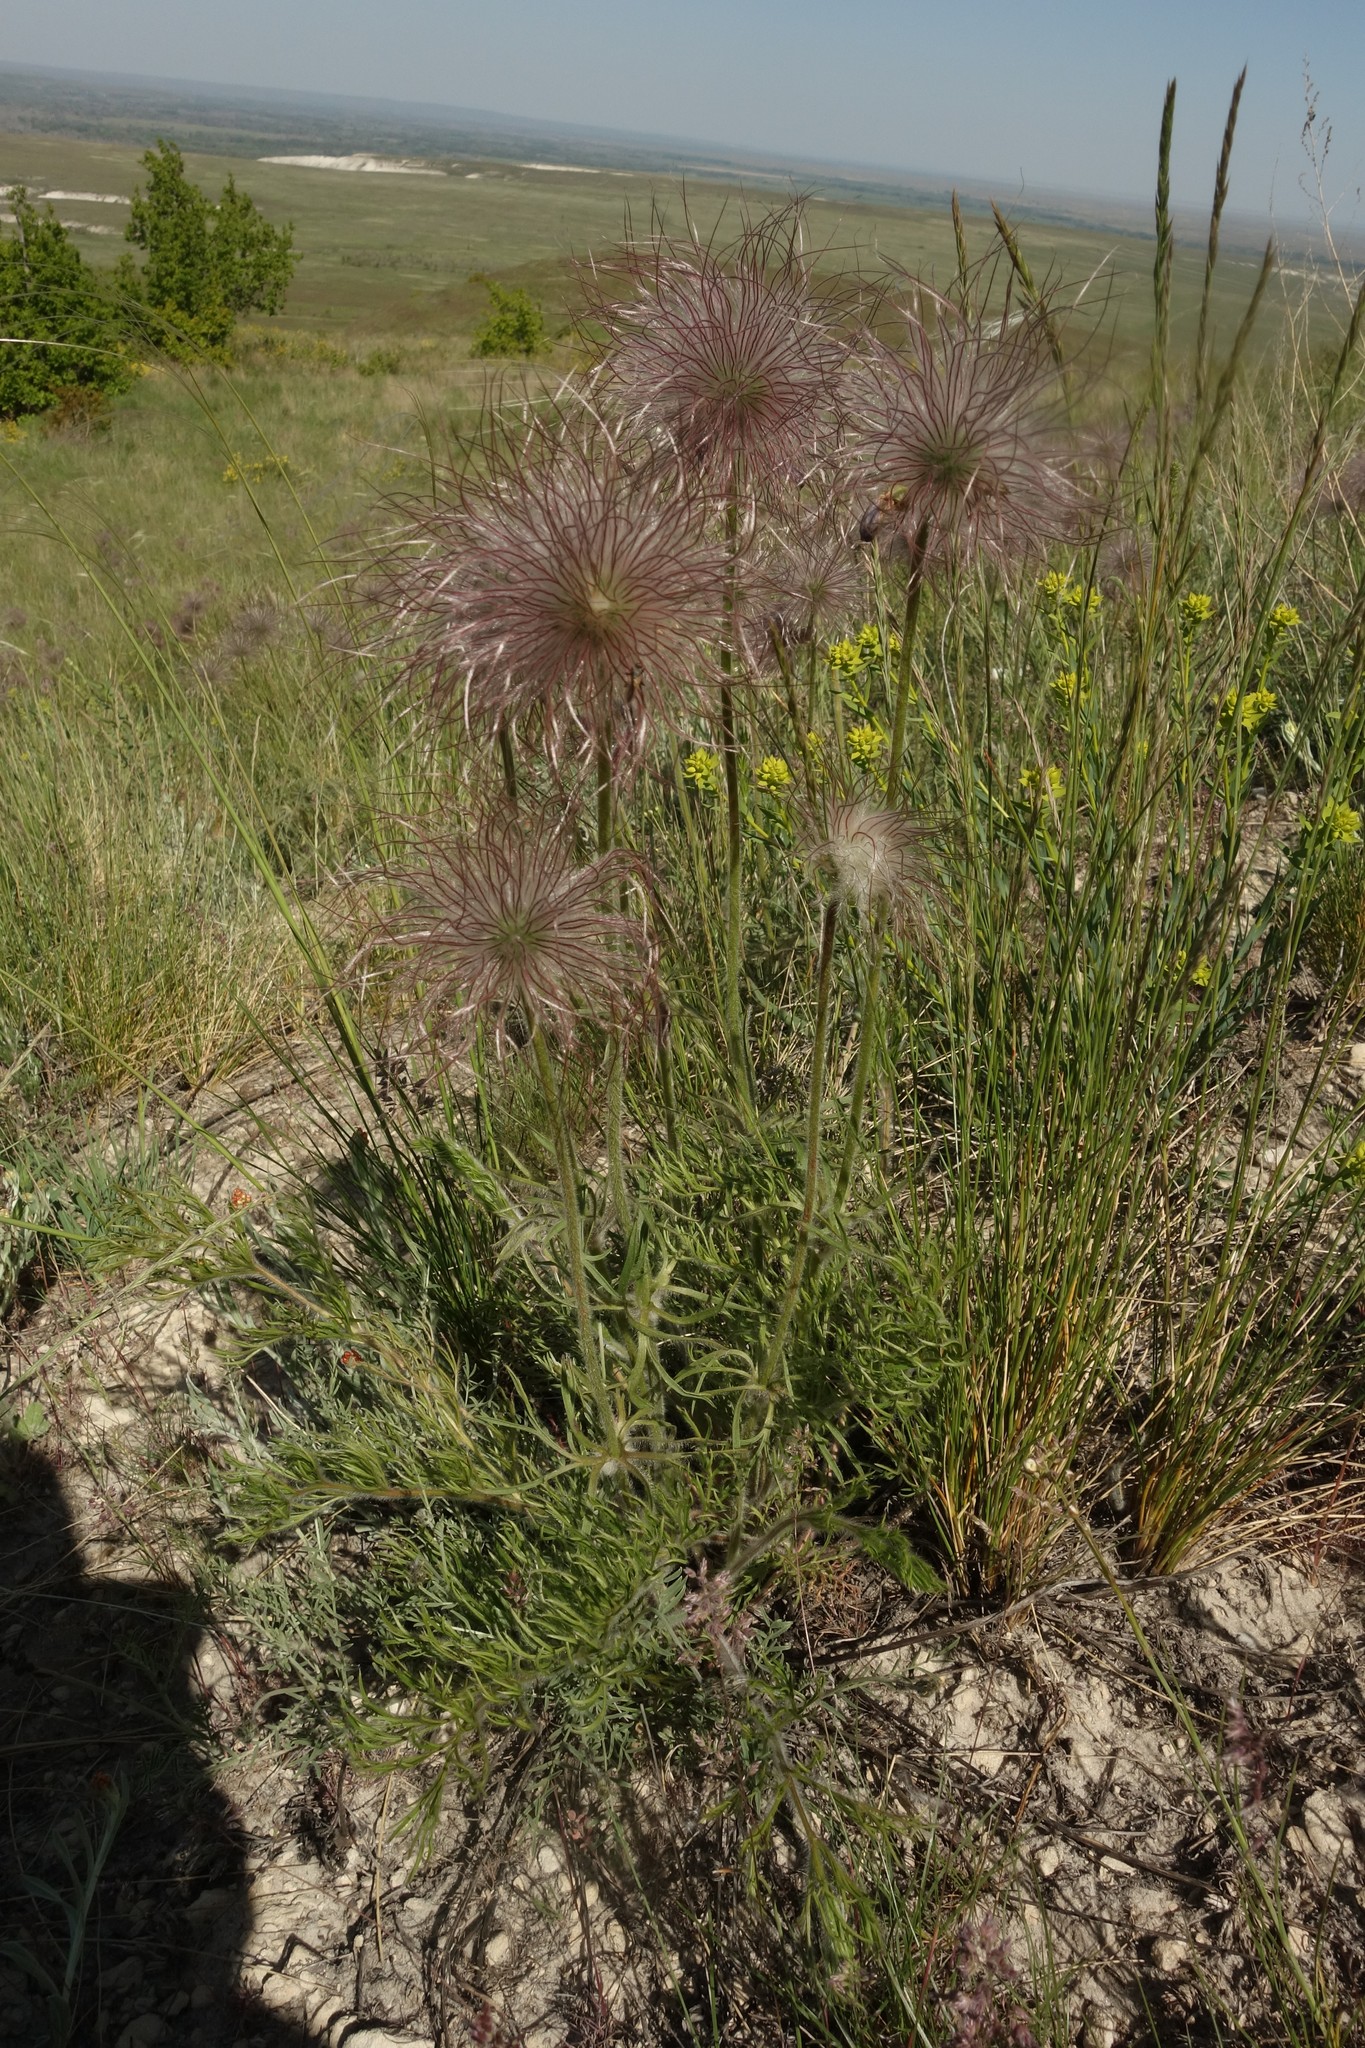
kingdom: Plantae
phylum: Tracheophyta
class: Magnoliopsida
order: Ranunculales
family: Ranunculaceae
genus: Pulsatilla
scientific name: Pulsatilla pratensis
